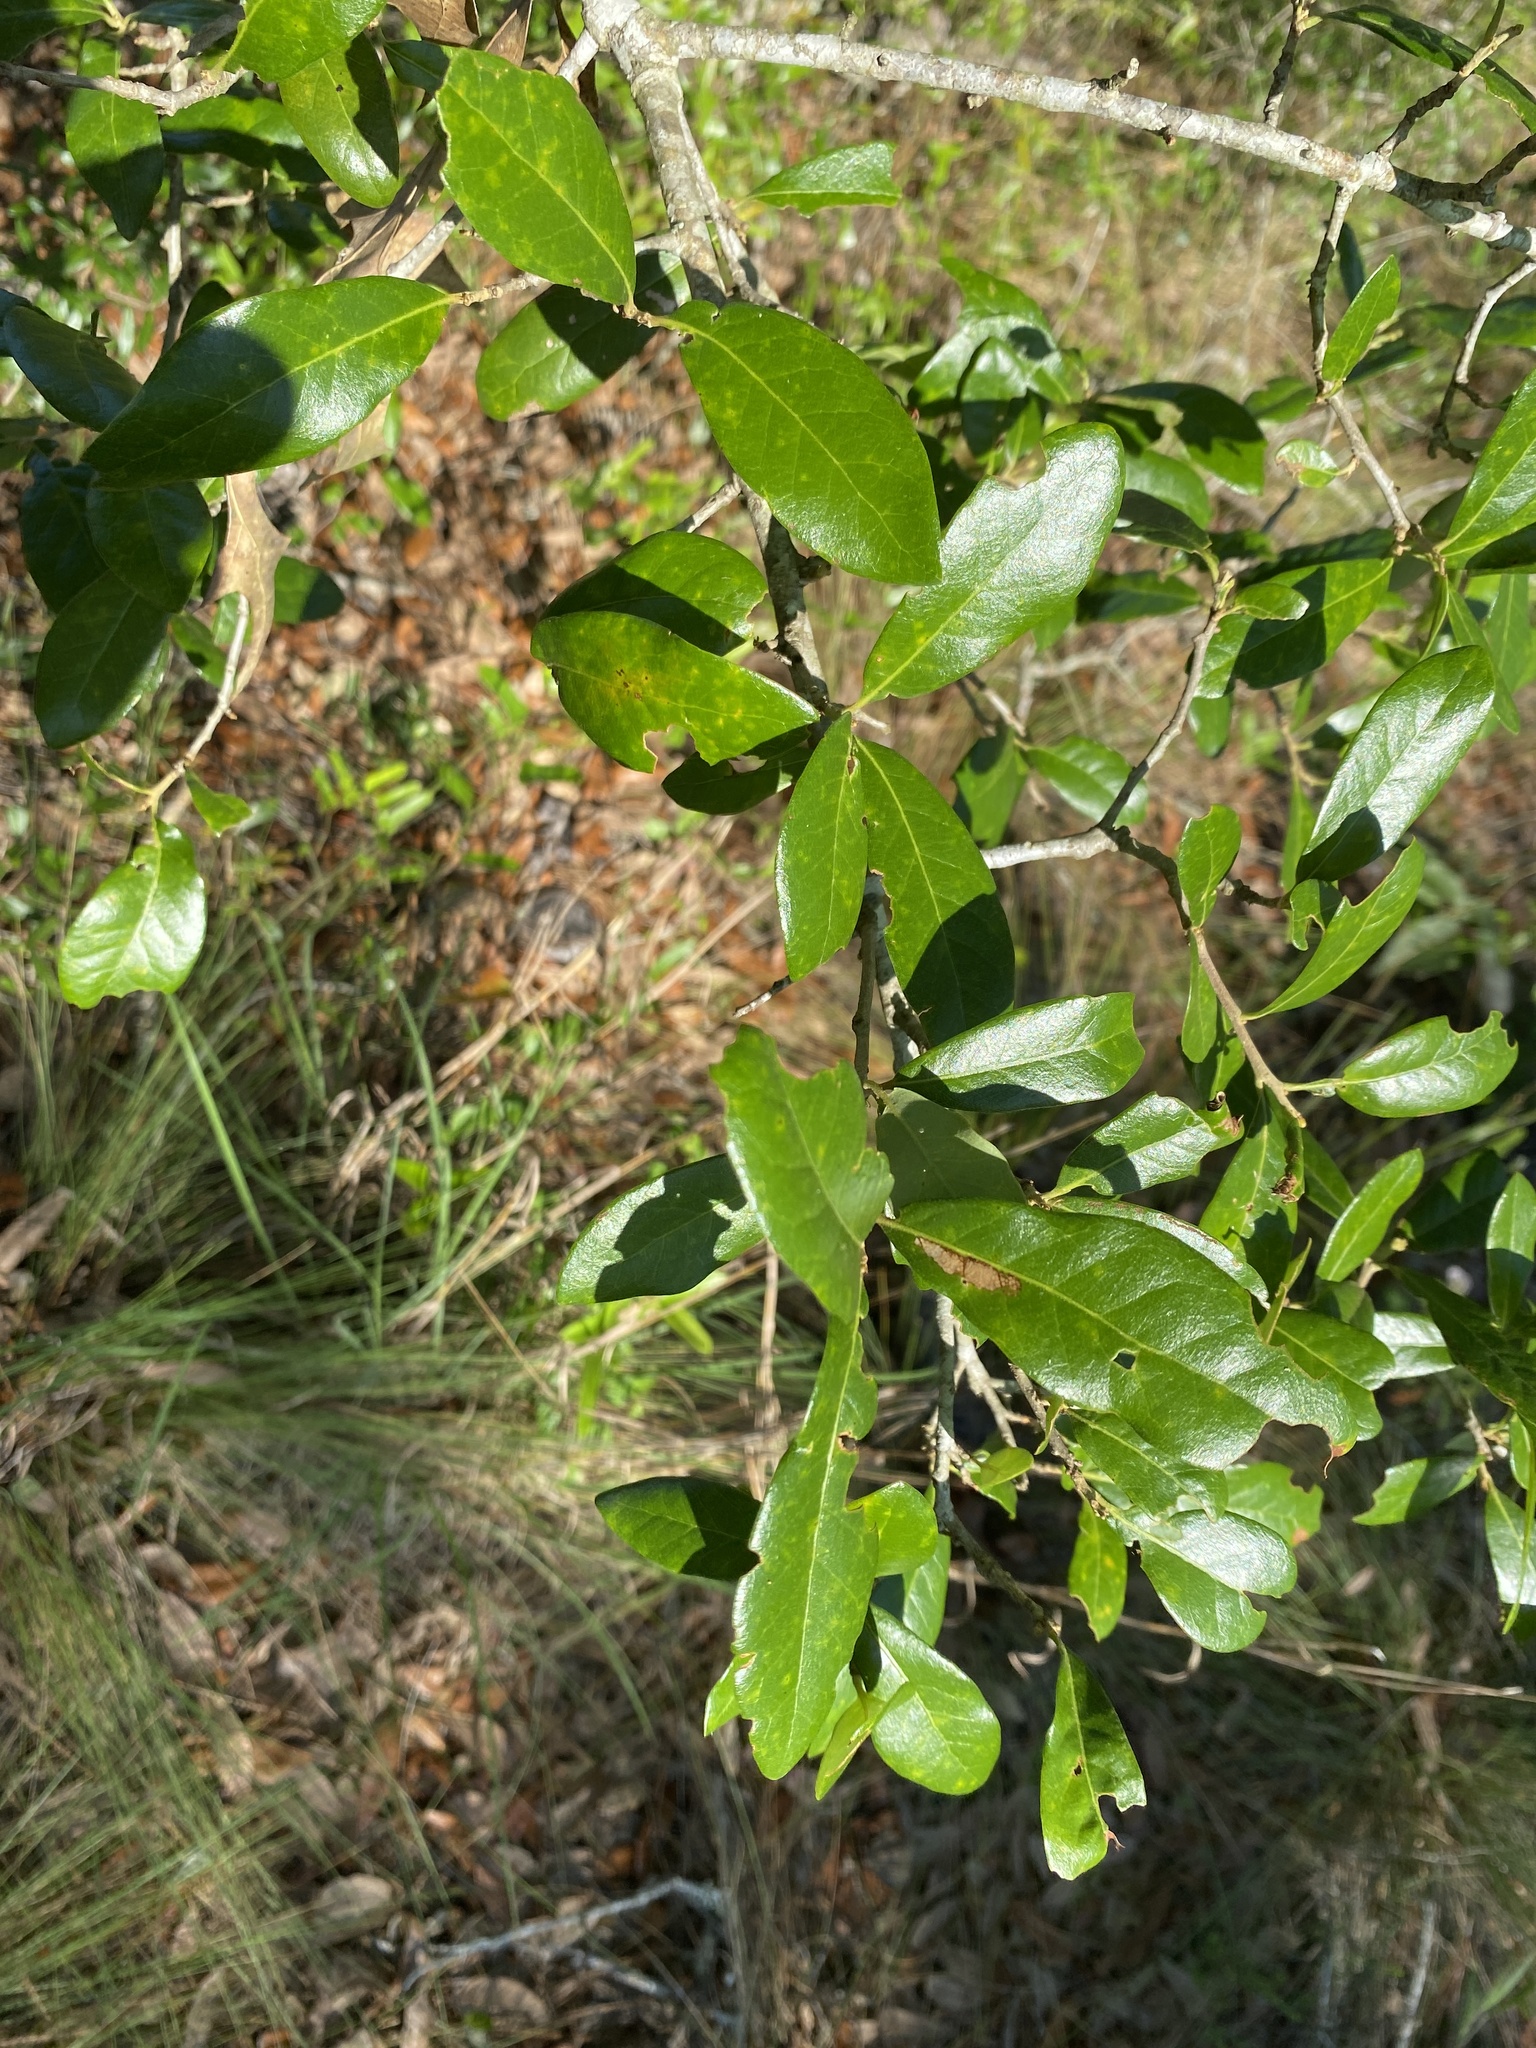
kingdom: Plantae
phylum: Tracheophyta
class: Magnoliopsida
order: Fagales
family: Fagaceae
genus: Quercus
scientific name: Quercus virginiana
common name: Southern live oak
